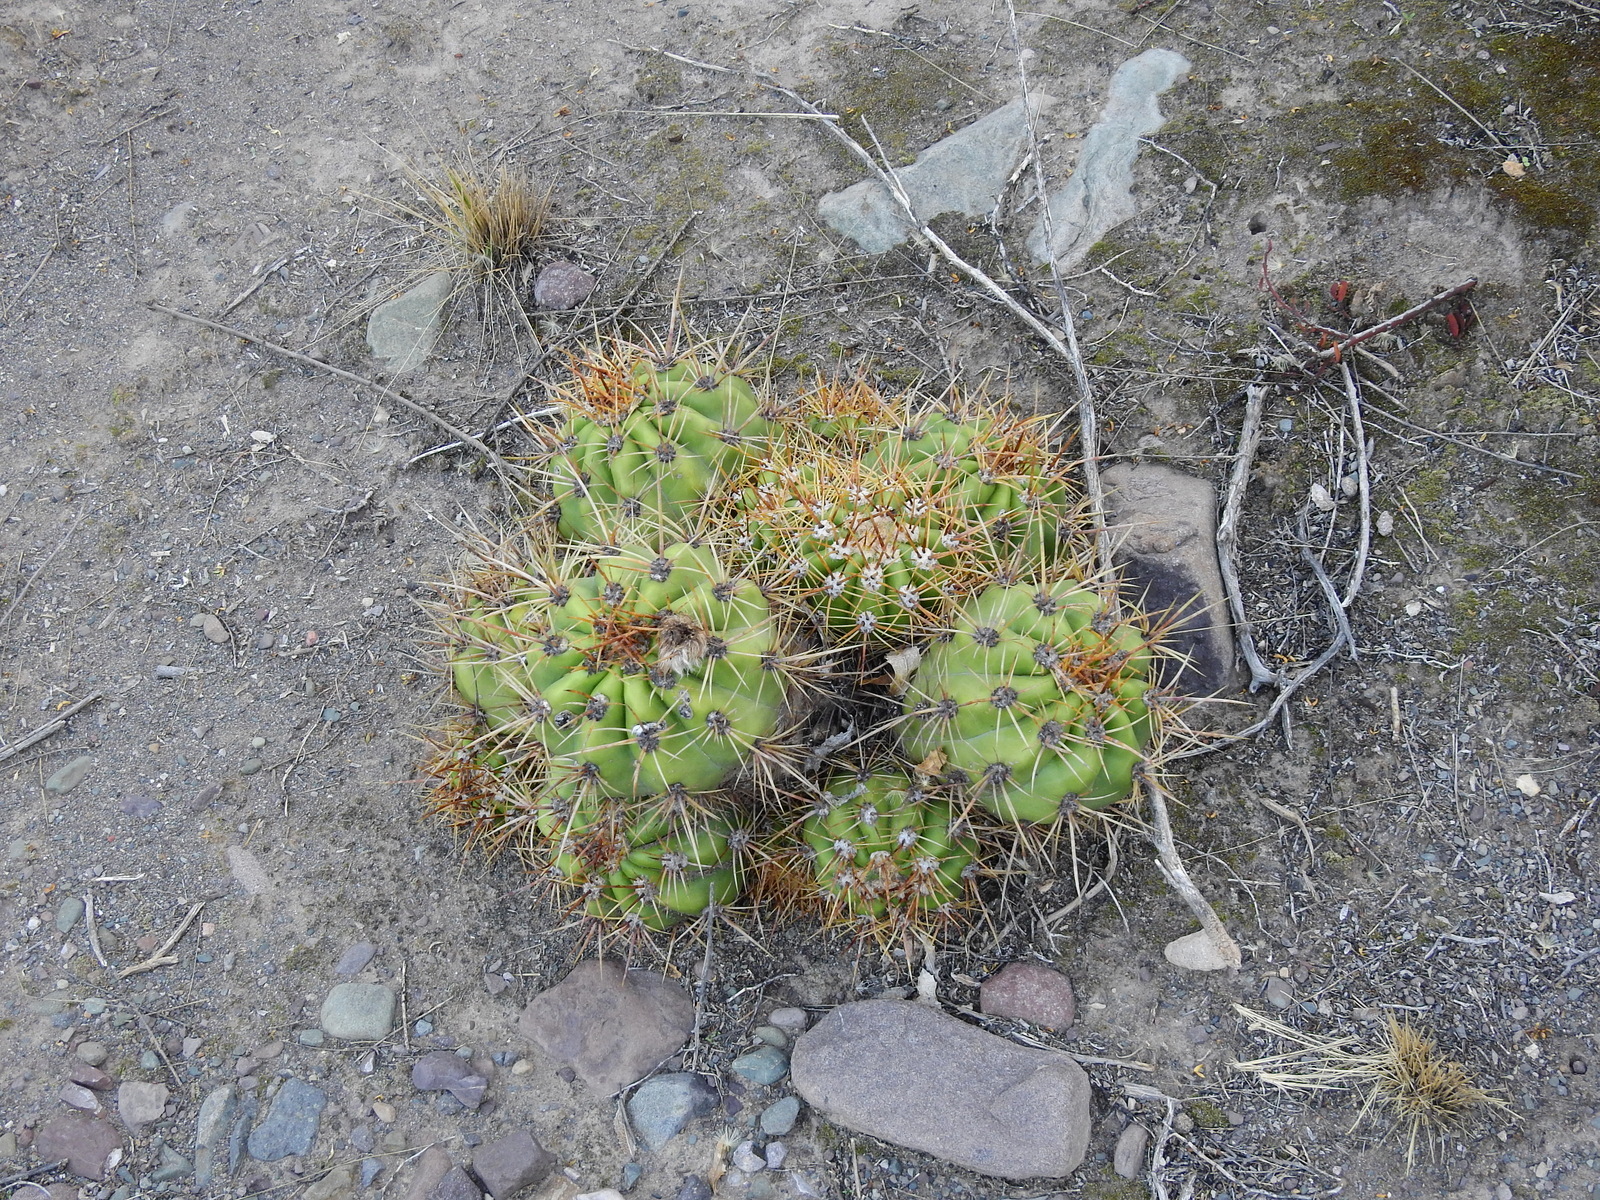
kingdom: Plantae
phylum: Tracheophyta
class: Magnoliopsida
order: Caryophyllales
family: Cactaceae
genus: Soehrensia
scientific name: Soehrensia candicans
